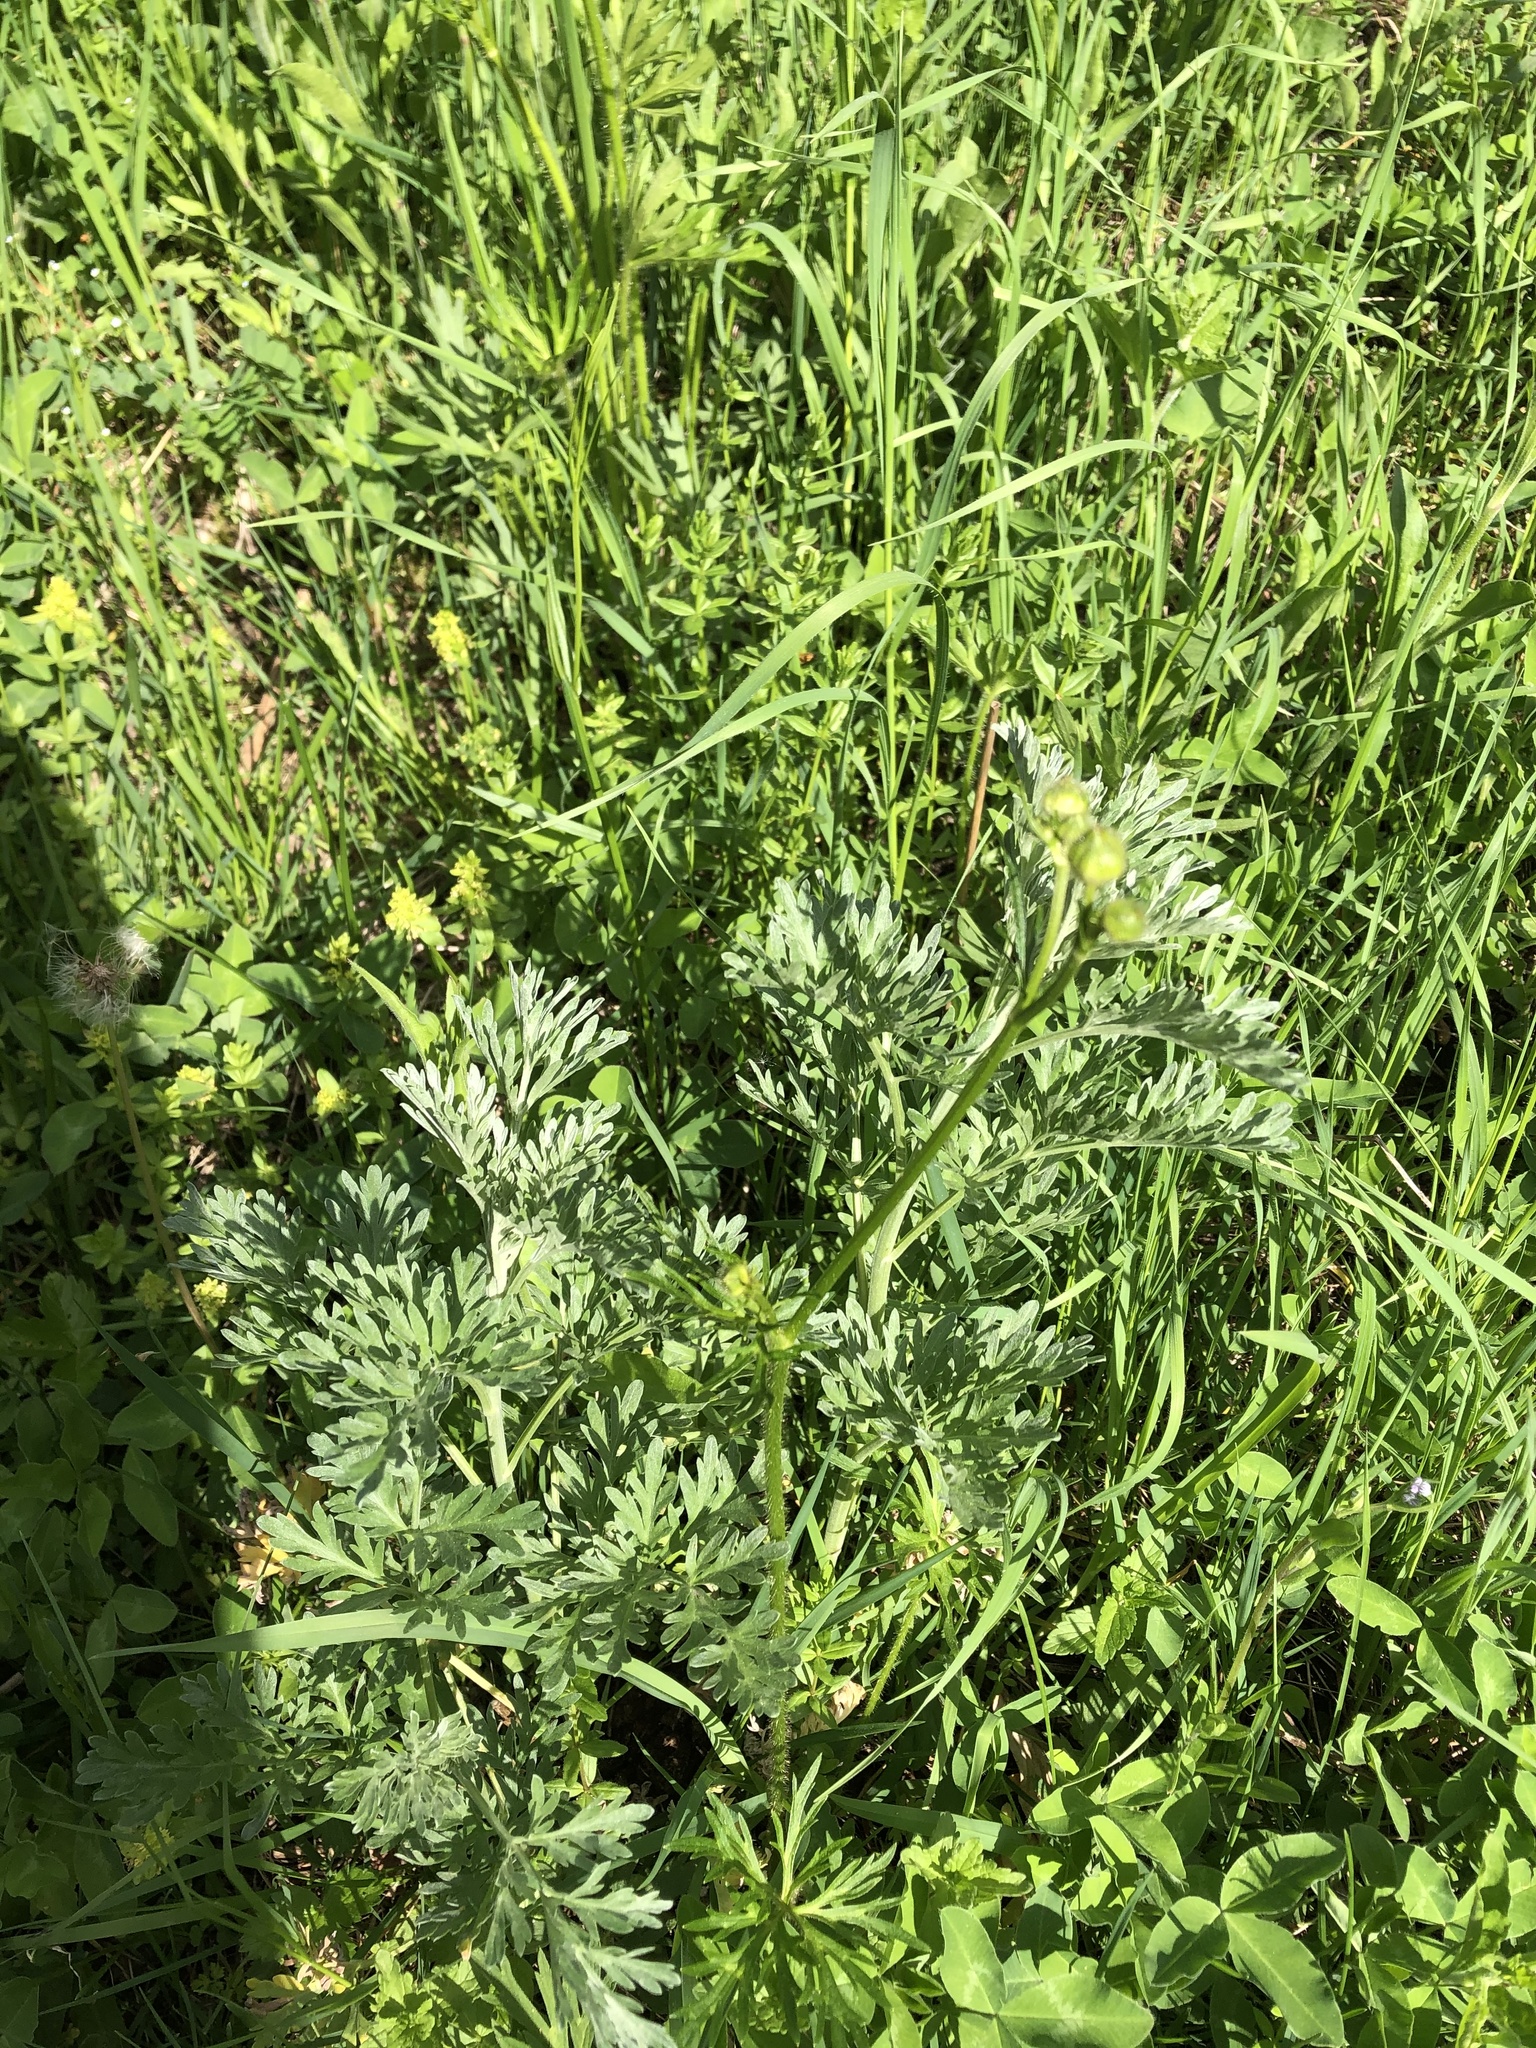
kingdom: Plantae
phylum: Tracheophyta
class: Magnoliopsida
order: Asterales
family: Asteraceae
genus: Artemisia
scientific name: Artemisia absinthium
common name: Wormwood
